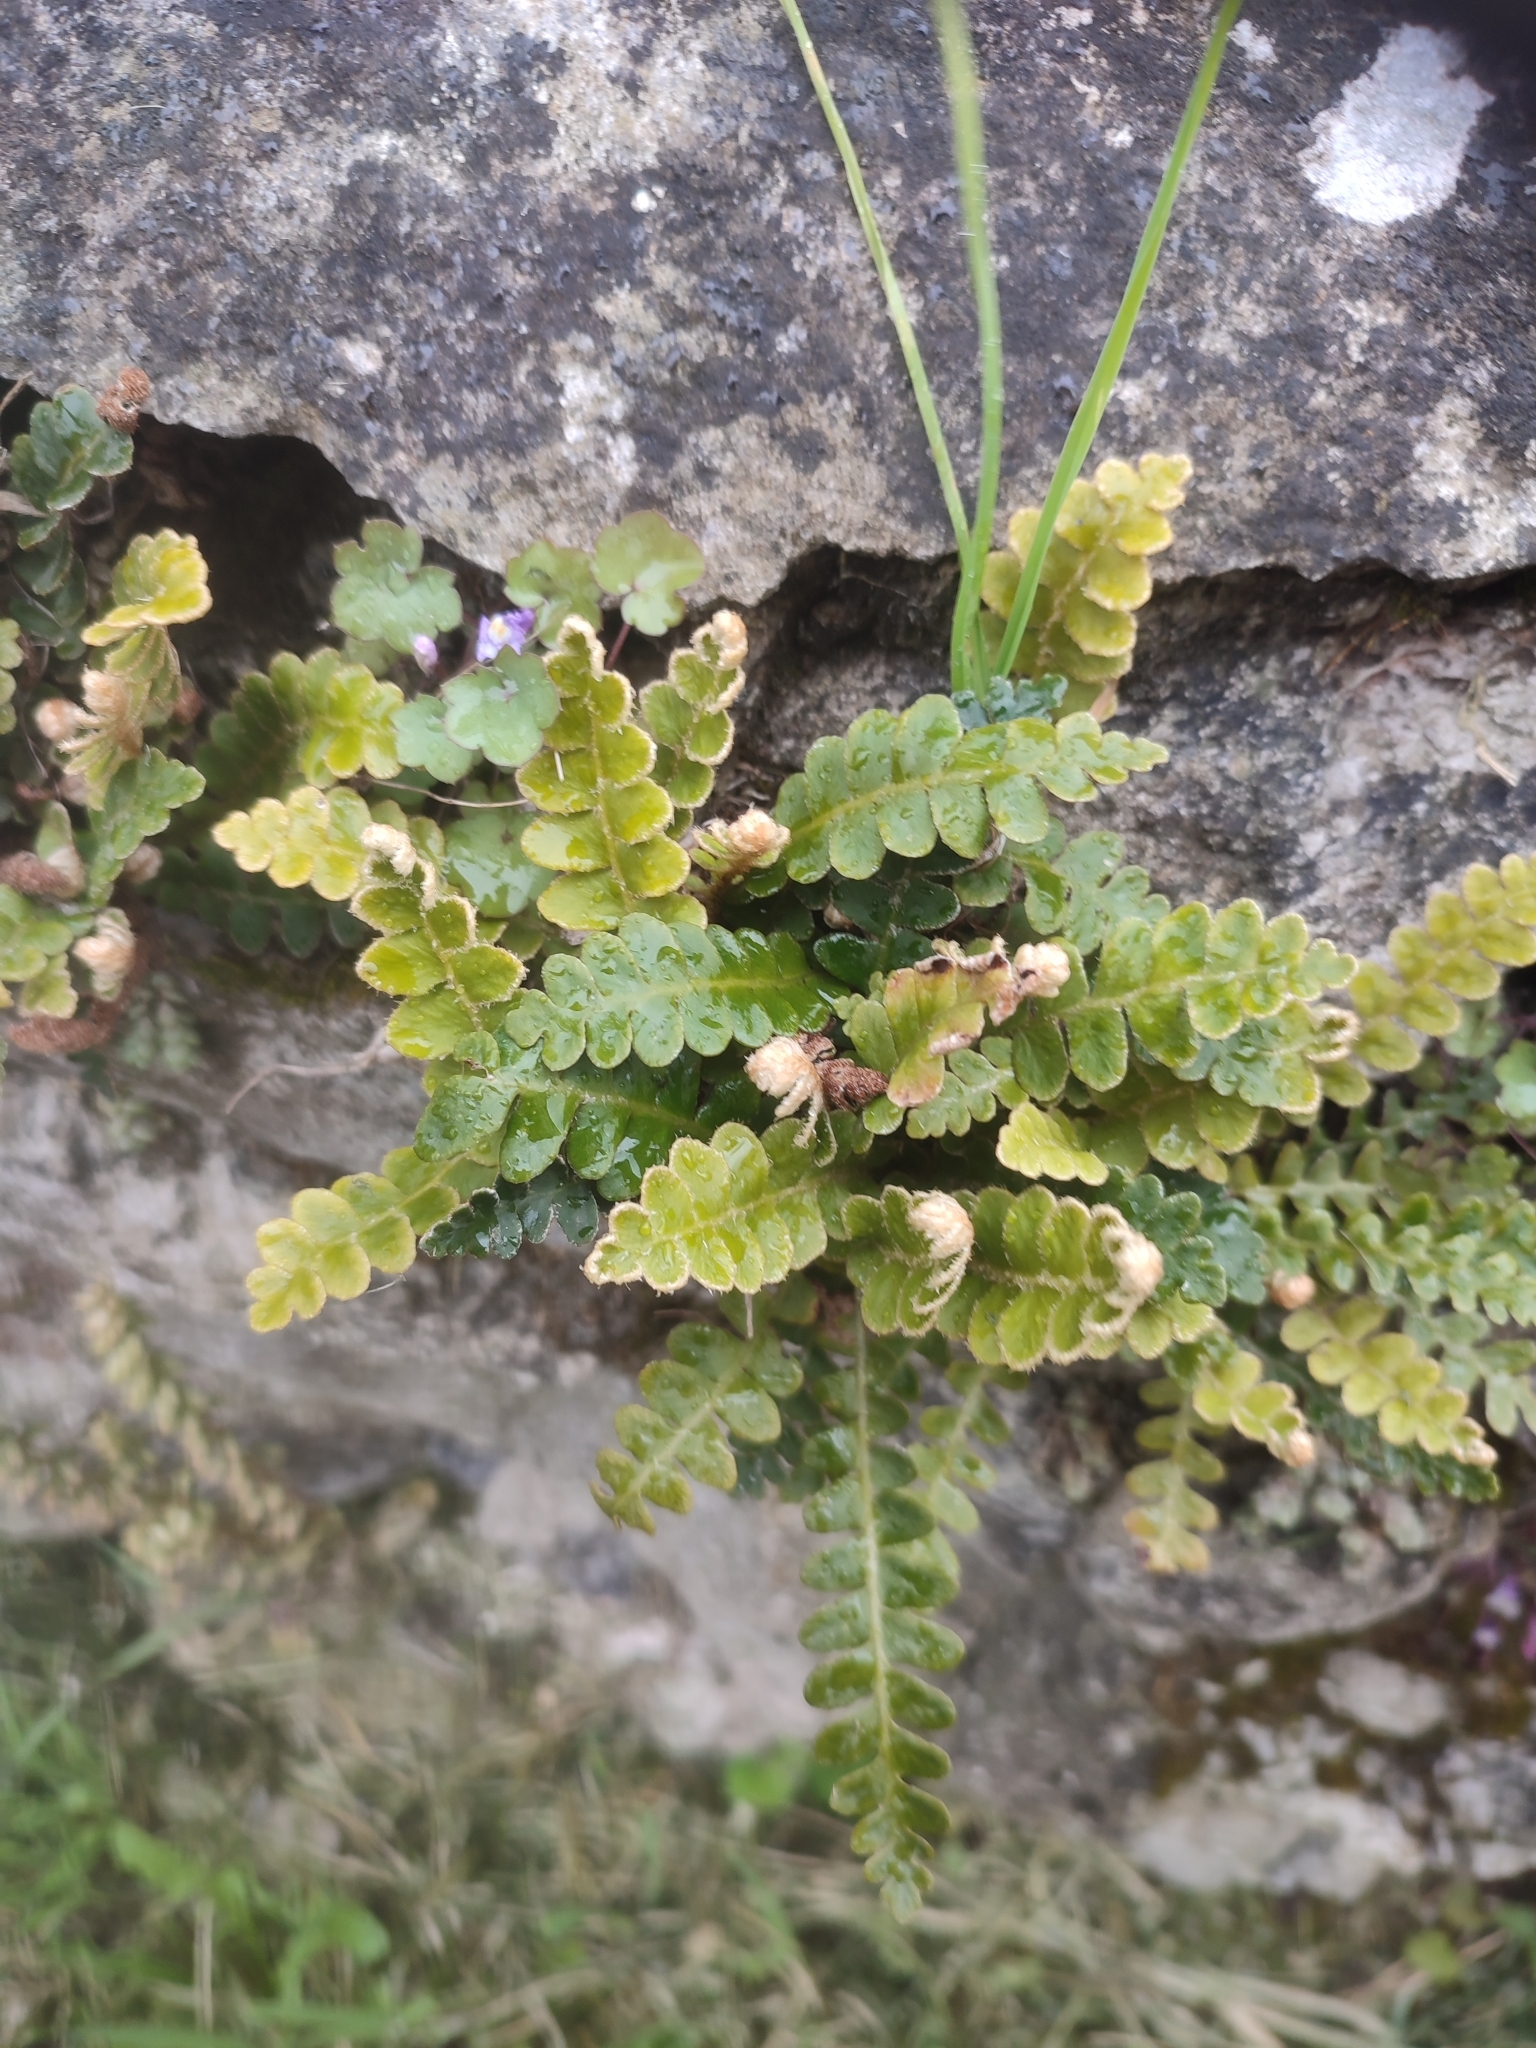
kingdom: Plantae
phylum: Tracheophyta
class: Polypodiopsida
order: Polypodiales
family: Aspleniaceae
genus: Asplenium
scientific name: Asplenium ceterach
